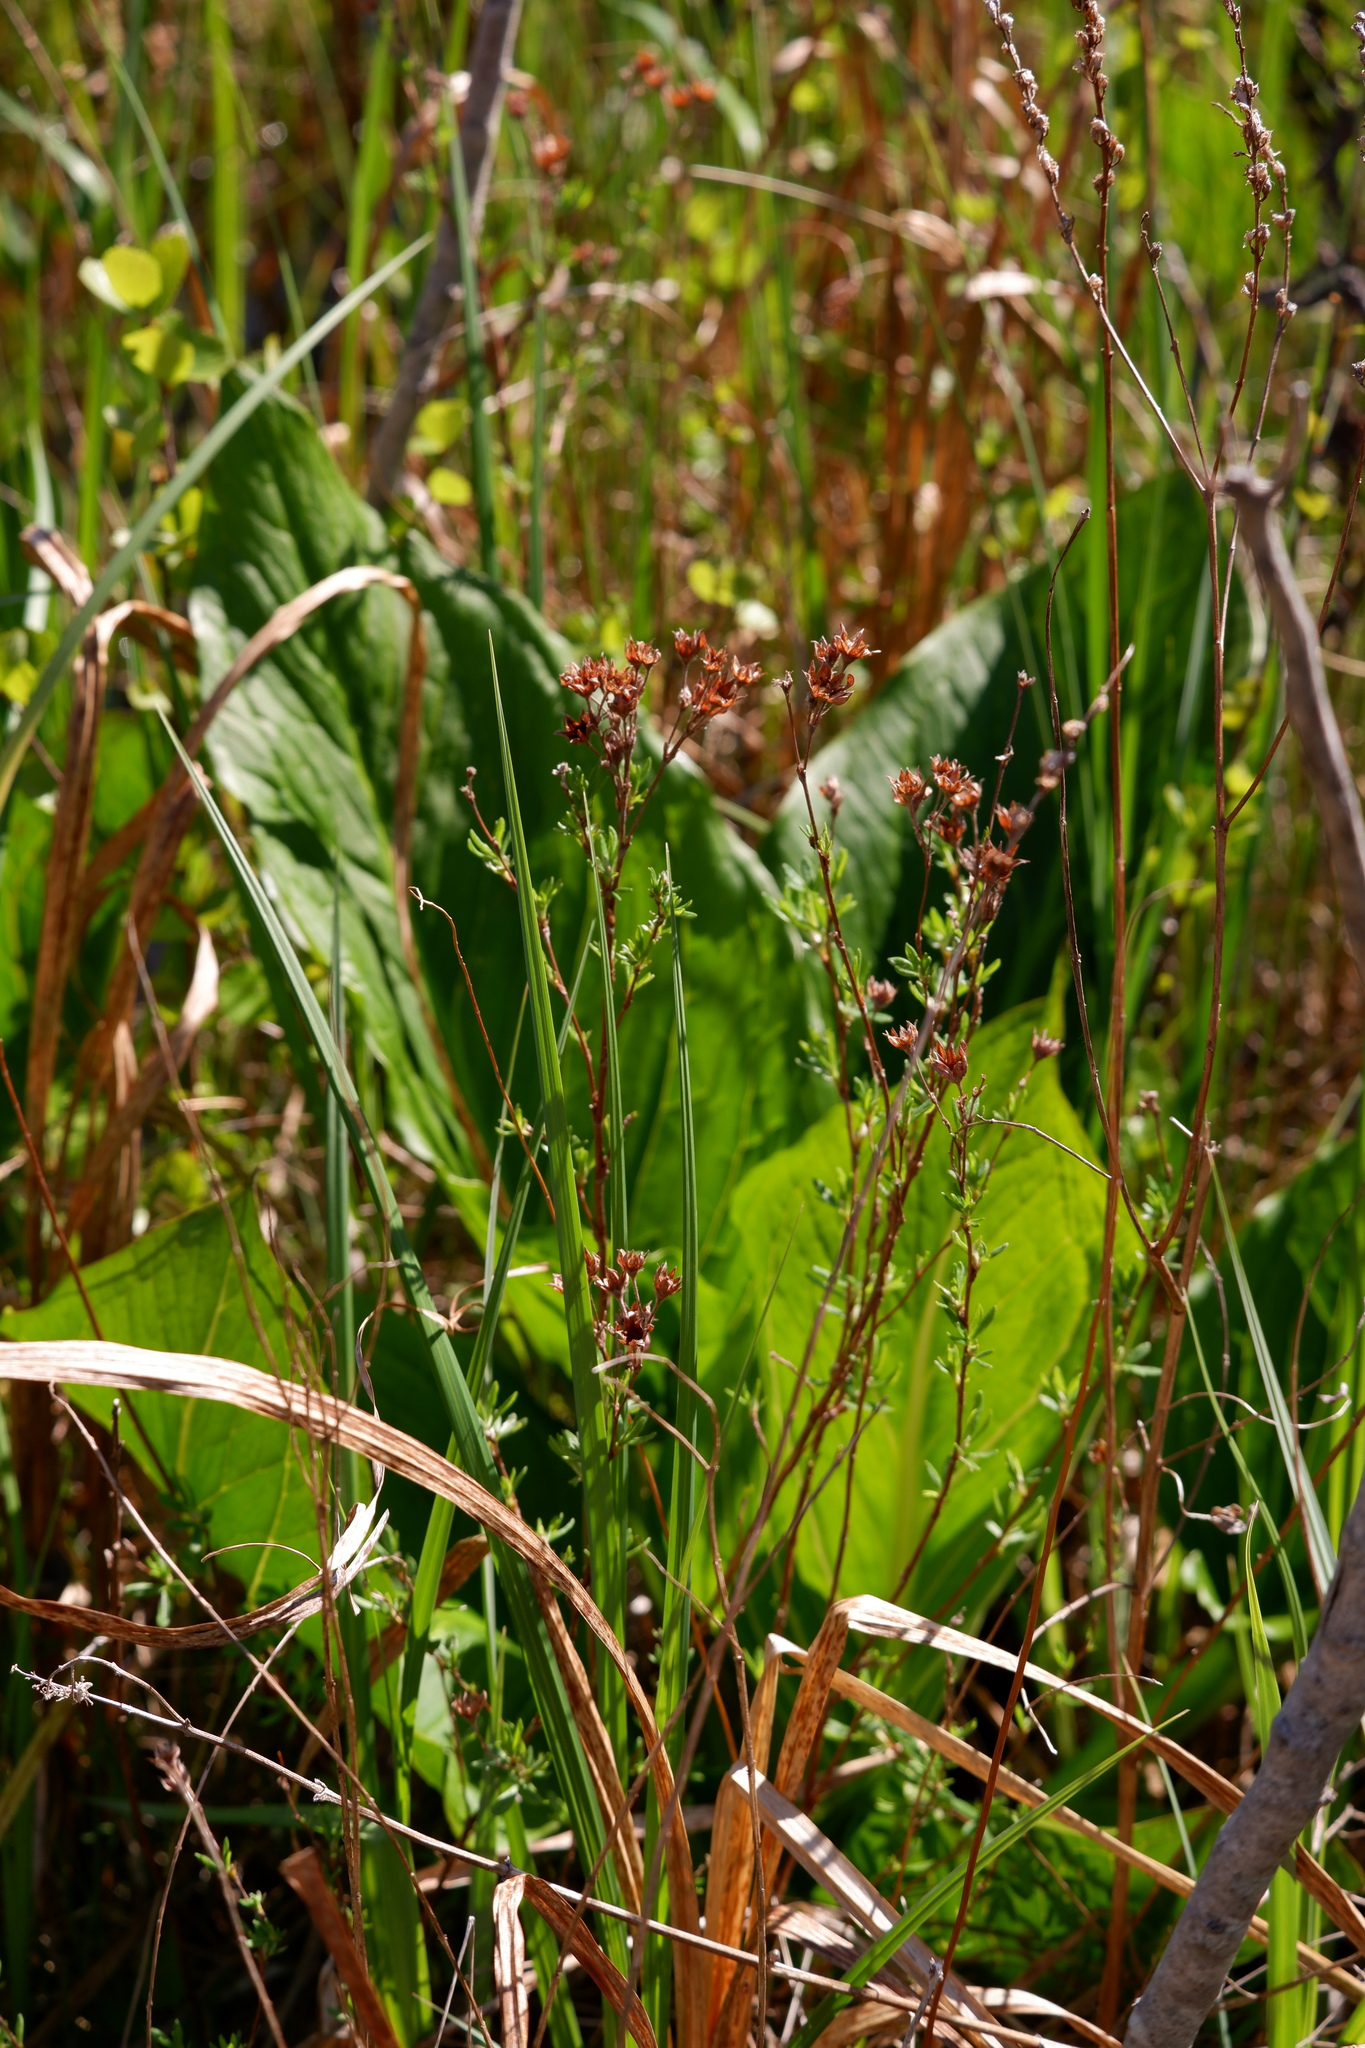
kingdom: Plantae
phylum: Tracheophyta
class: Magnoliopsida
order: Rosales
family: Rosaceae
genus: Dasiphora
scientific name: Dasiphora fruticosa
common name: Shrubby cinquefoil
